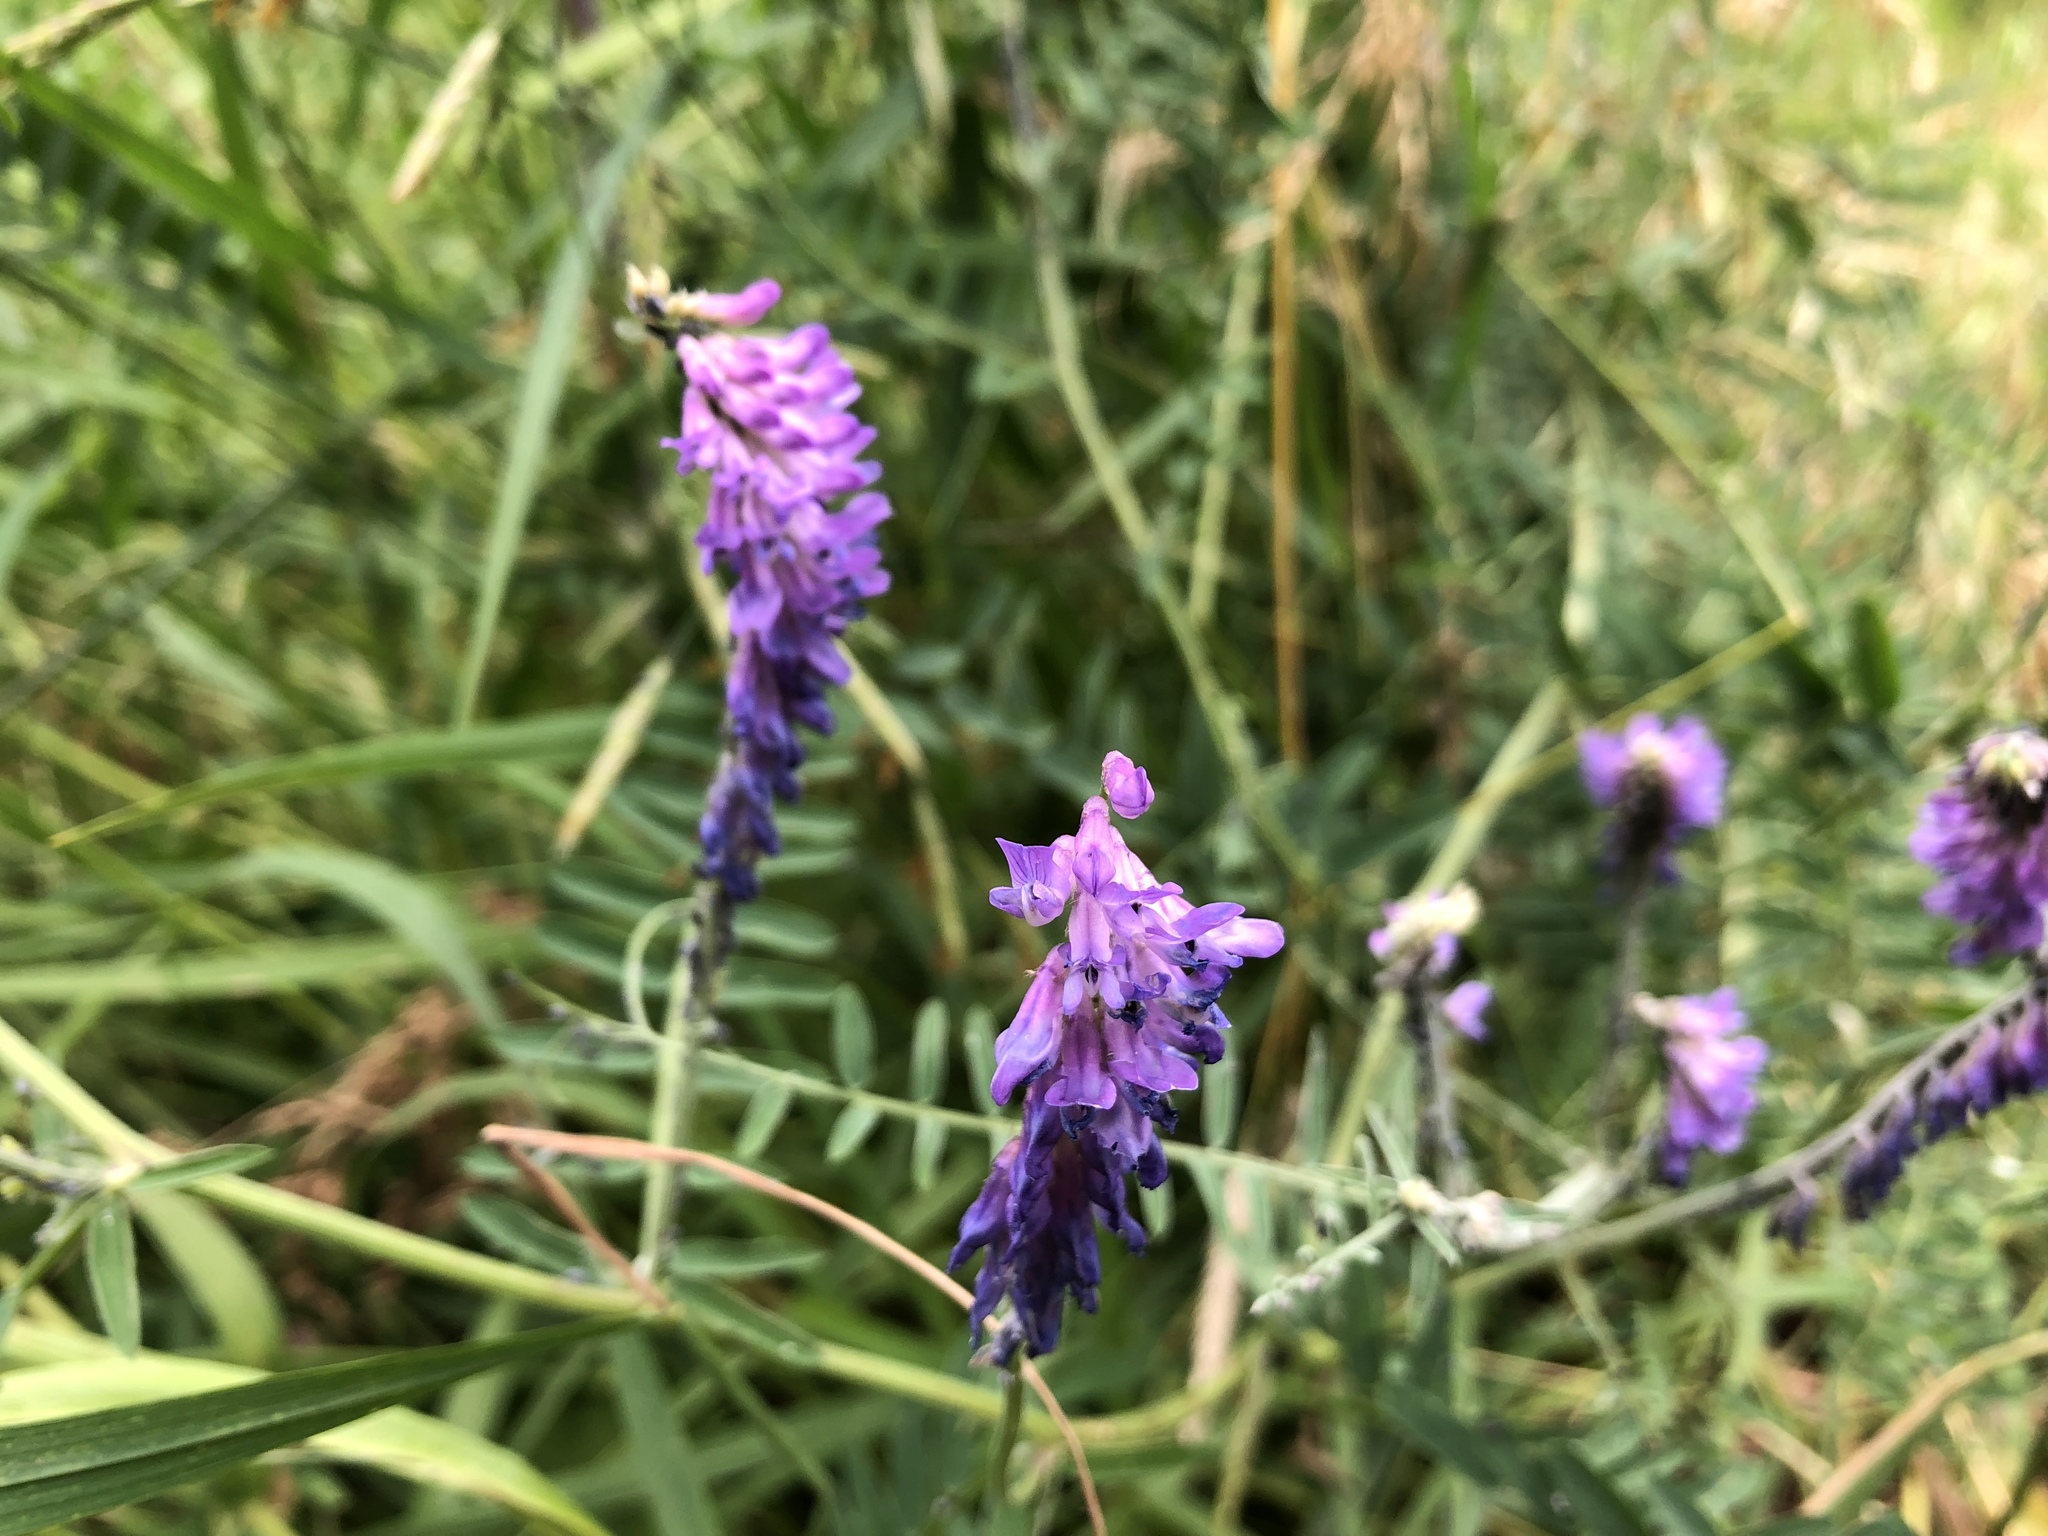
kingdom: Plantae
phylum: Tracheophyta
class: Magnoliopsida
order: Fabales
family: Fabaceae
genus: Vicia
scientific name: Vicia cracca
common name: Bird vetch
